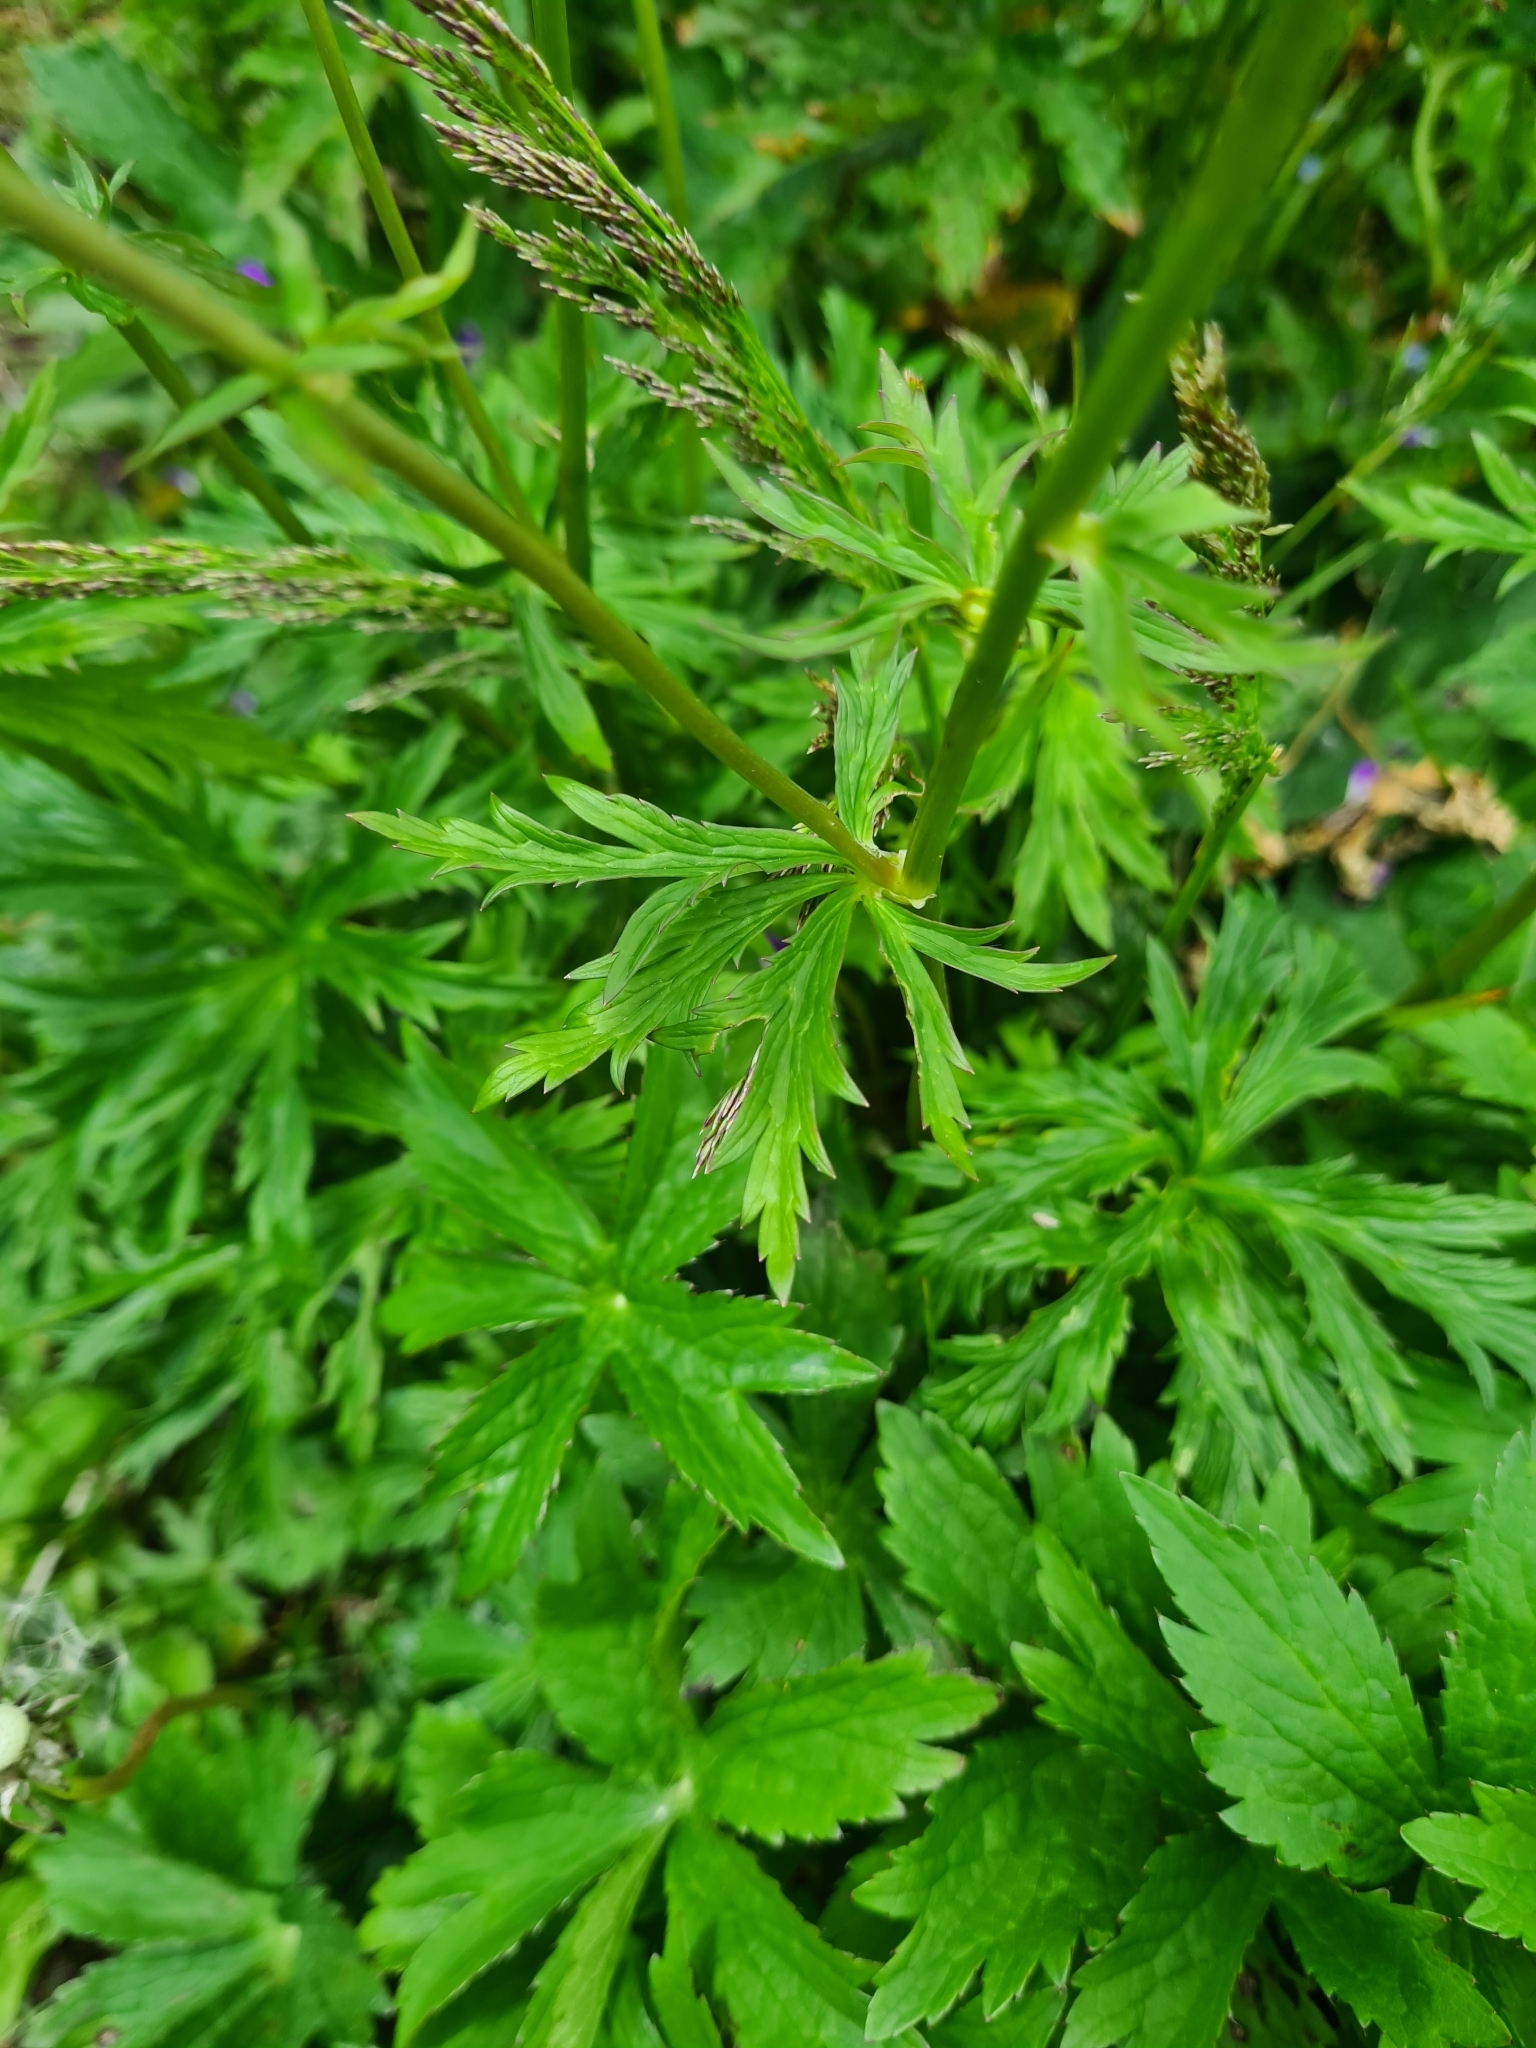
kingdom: Plantae
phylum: Tracheophyta
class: Magnoliopsida
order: Ranunculales
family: Ranunculaceae
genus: Trollius
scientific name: Trollius europaeus
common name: European globeflower
